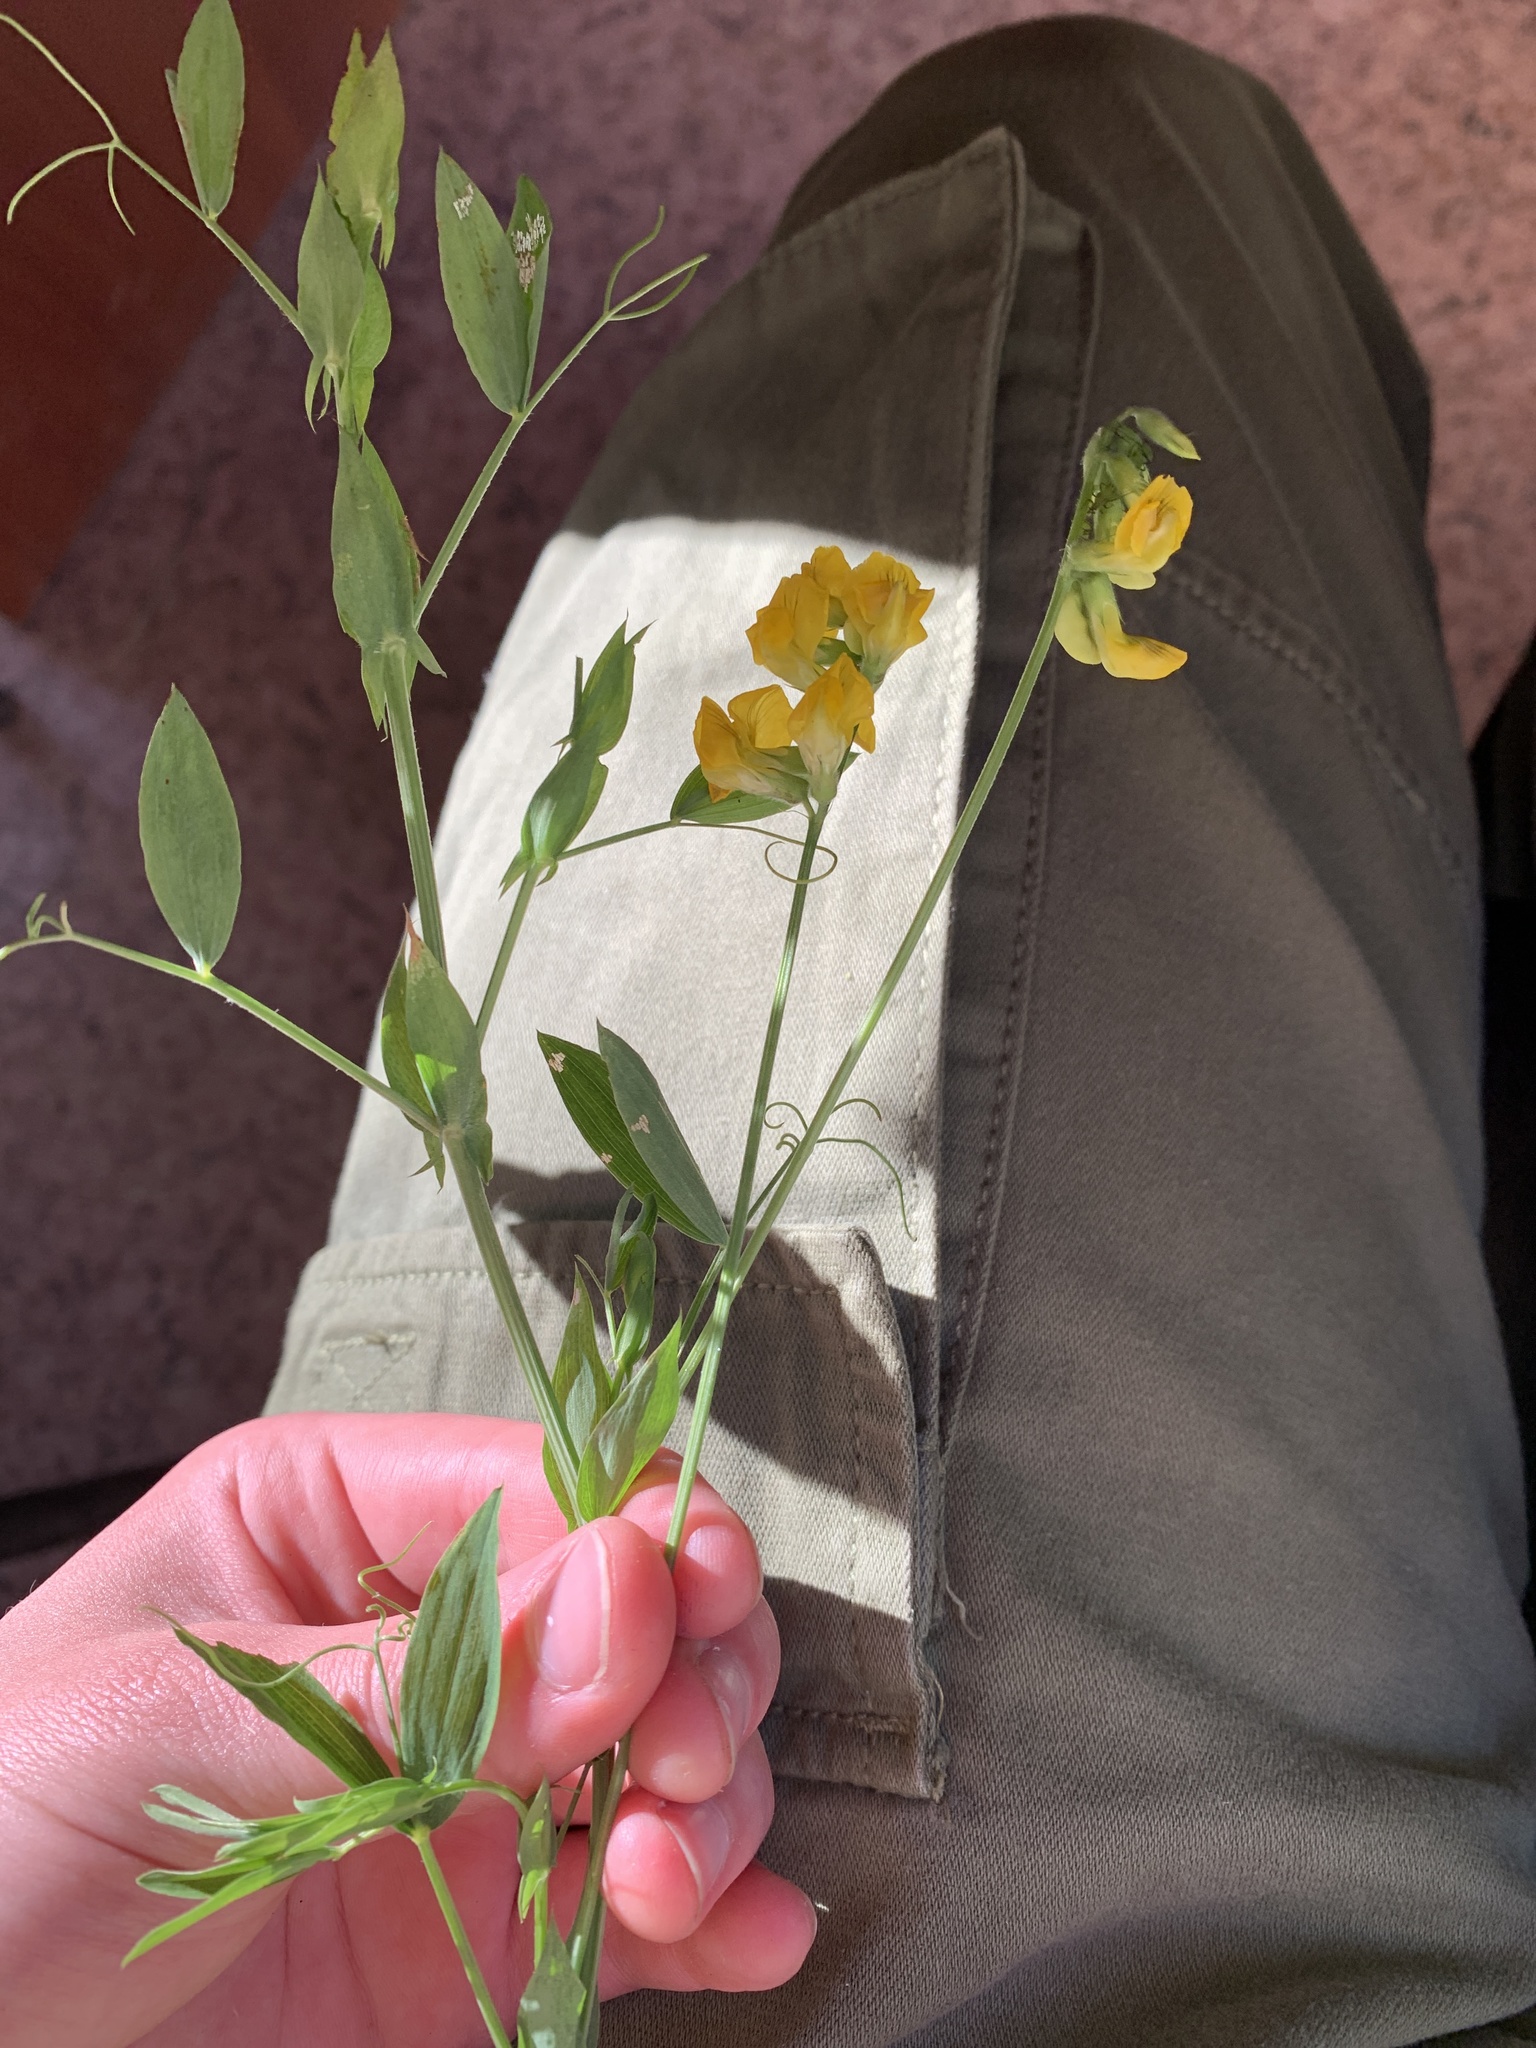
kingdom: Plantae
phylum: Tracheophyta
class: Magnoliopsida
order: Fabales
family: Fabaceae
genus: Lathyrus
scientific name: Lathyrus pratensis
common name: Meadow vetchling
